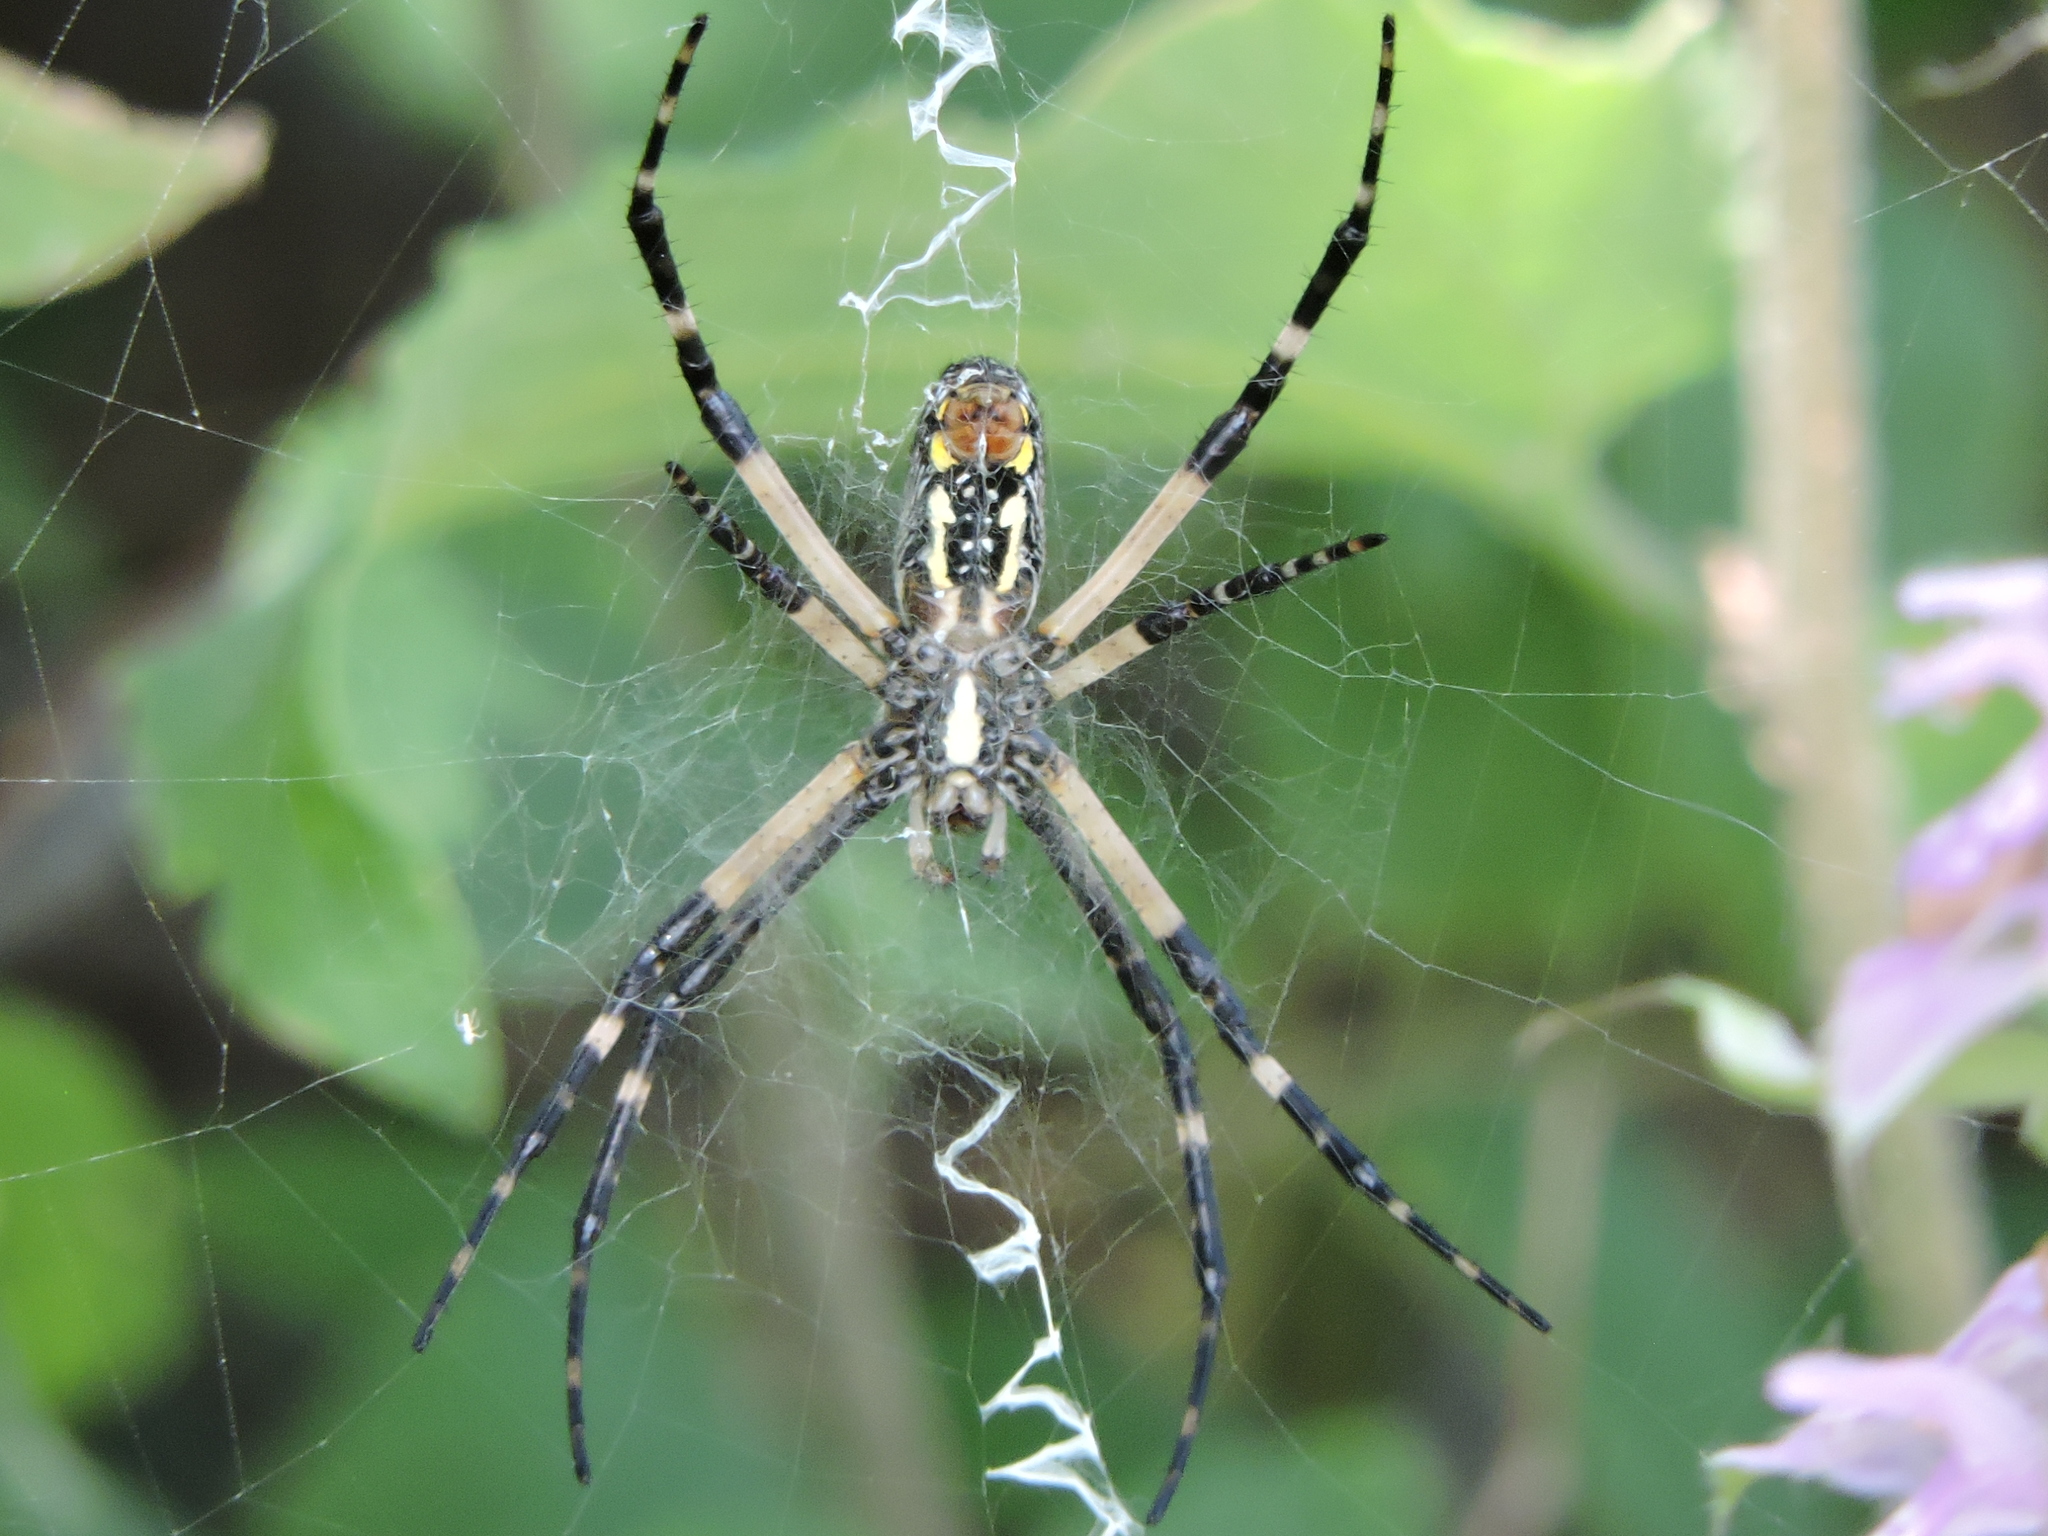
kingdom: Animalia
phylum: Arthropoda
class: Arachnida
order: Araneae
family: Araneidae
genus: Argiope
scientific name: Argiope aurantia
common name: Orb weavers
